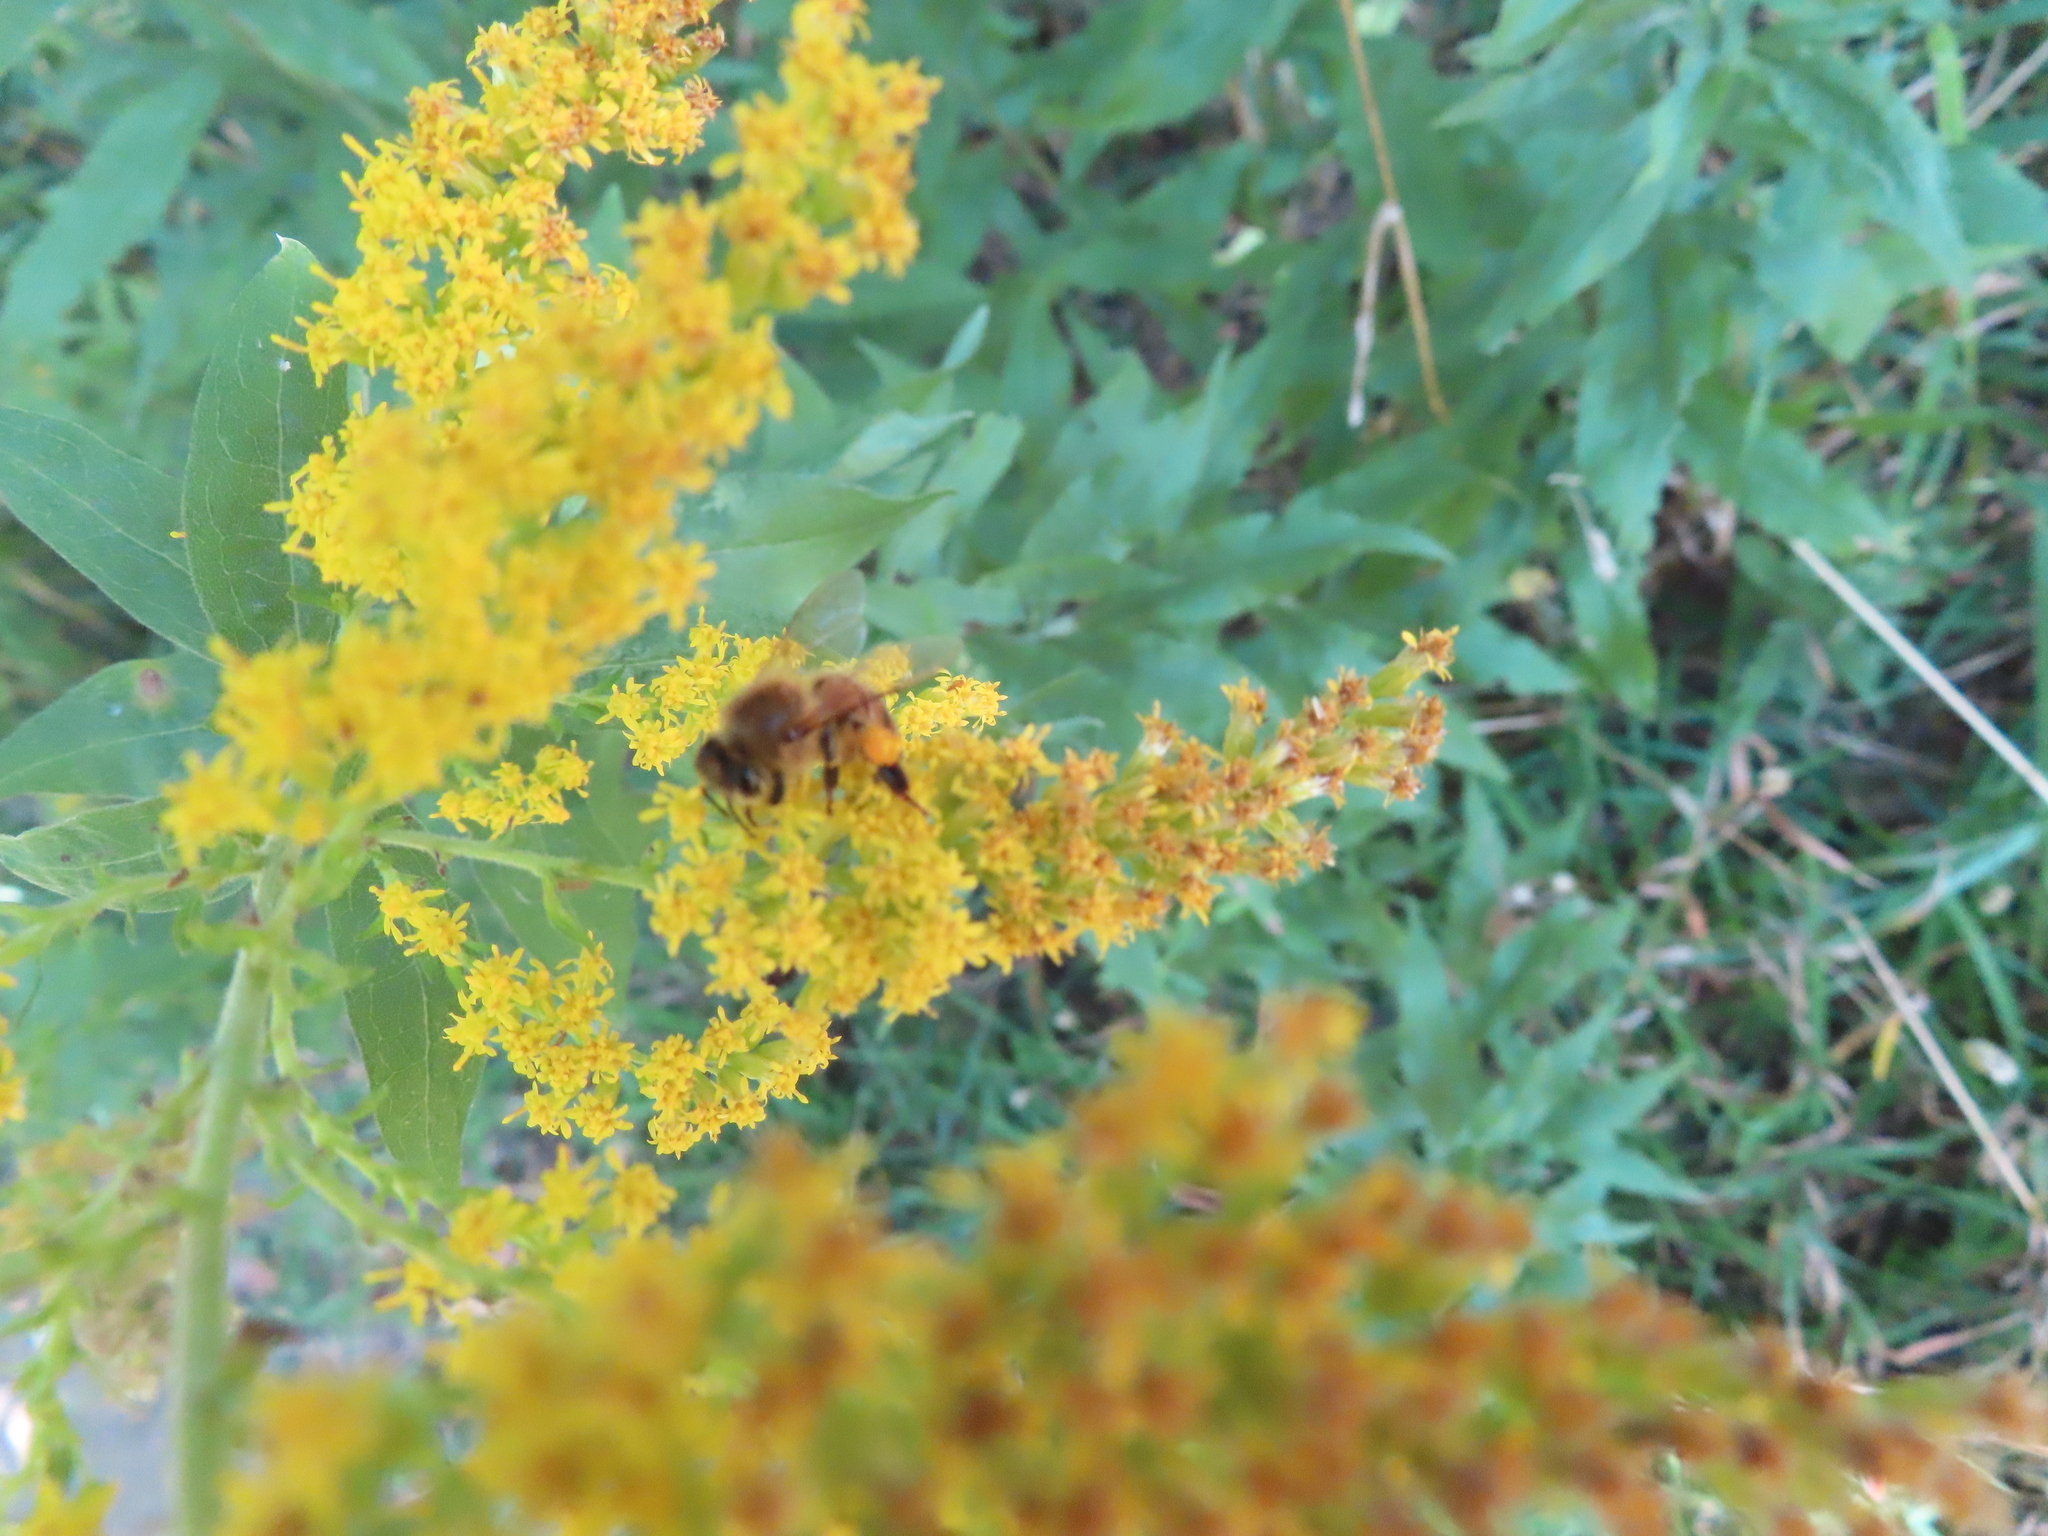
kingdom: Animalia
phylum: Arthropoda
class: Insecta
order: Hymenoptera
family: Apidae
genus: Apis
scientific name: Apis mellifera
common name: Honey bee
